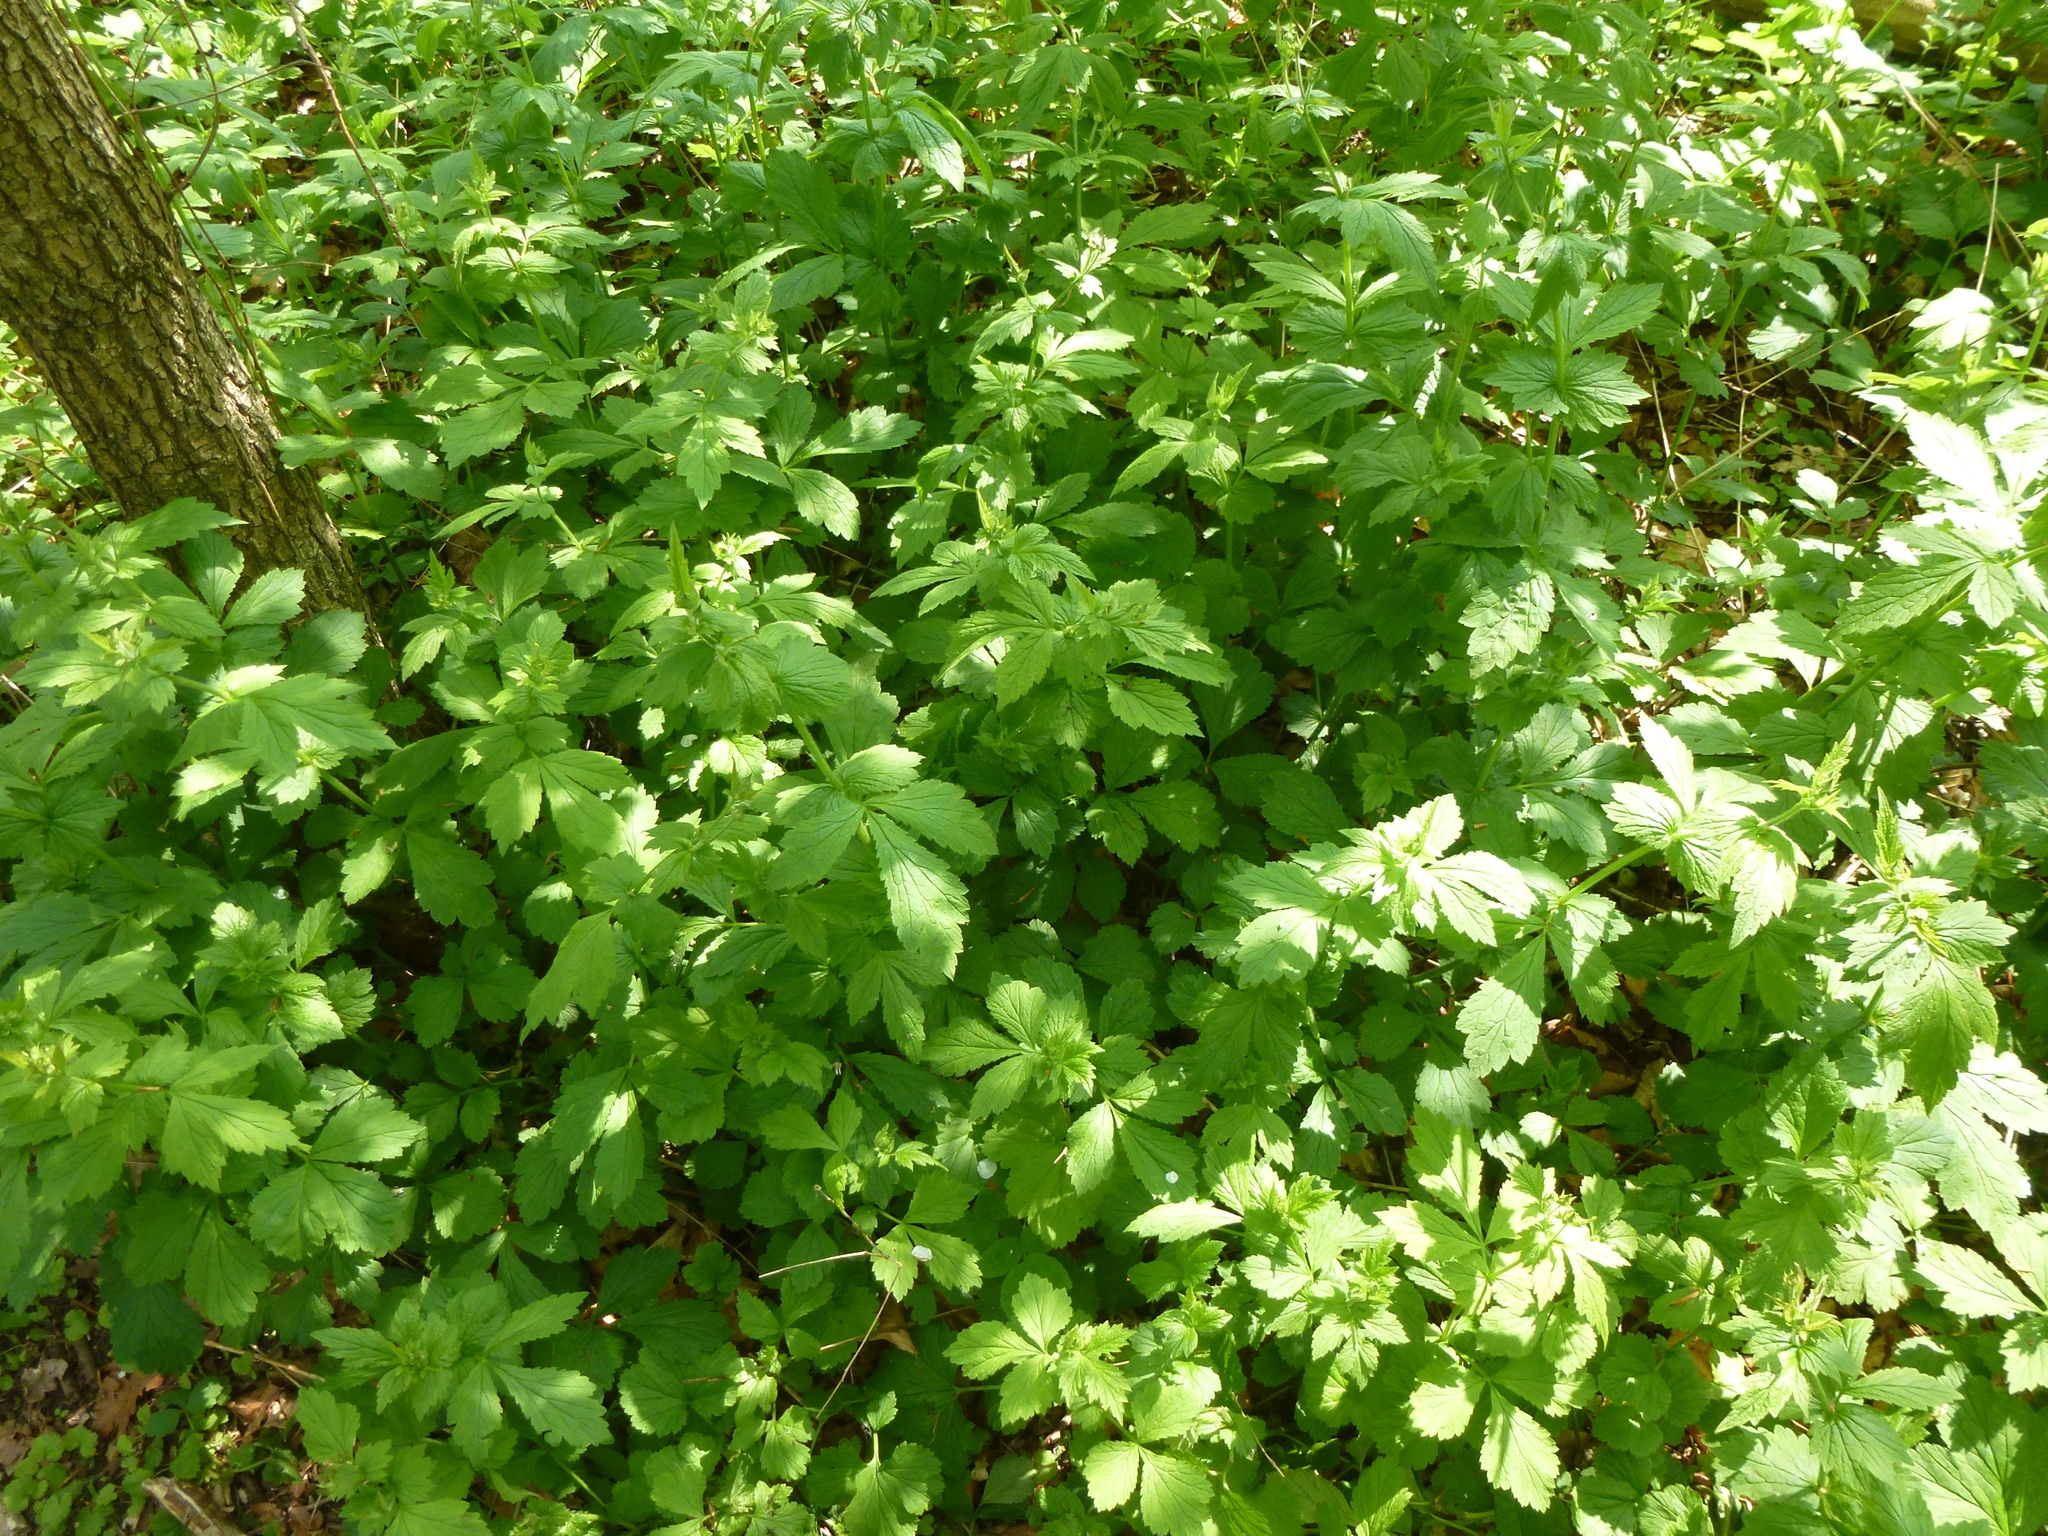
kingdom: Plantae
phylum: Tracheophyta
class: Magnoliopsida
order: Rosales
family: Rosaceae
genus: Geum
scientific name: Geum urbanum
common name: Wood avens
